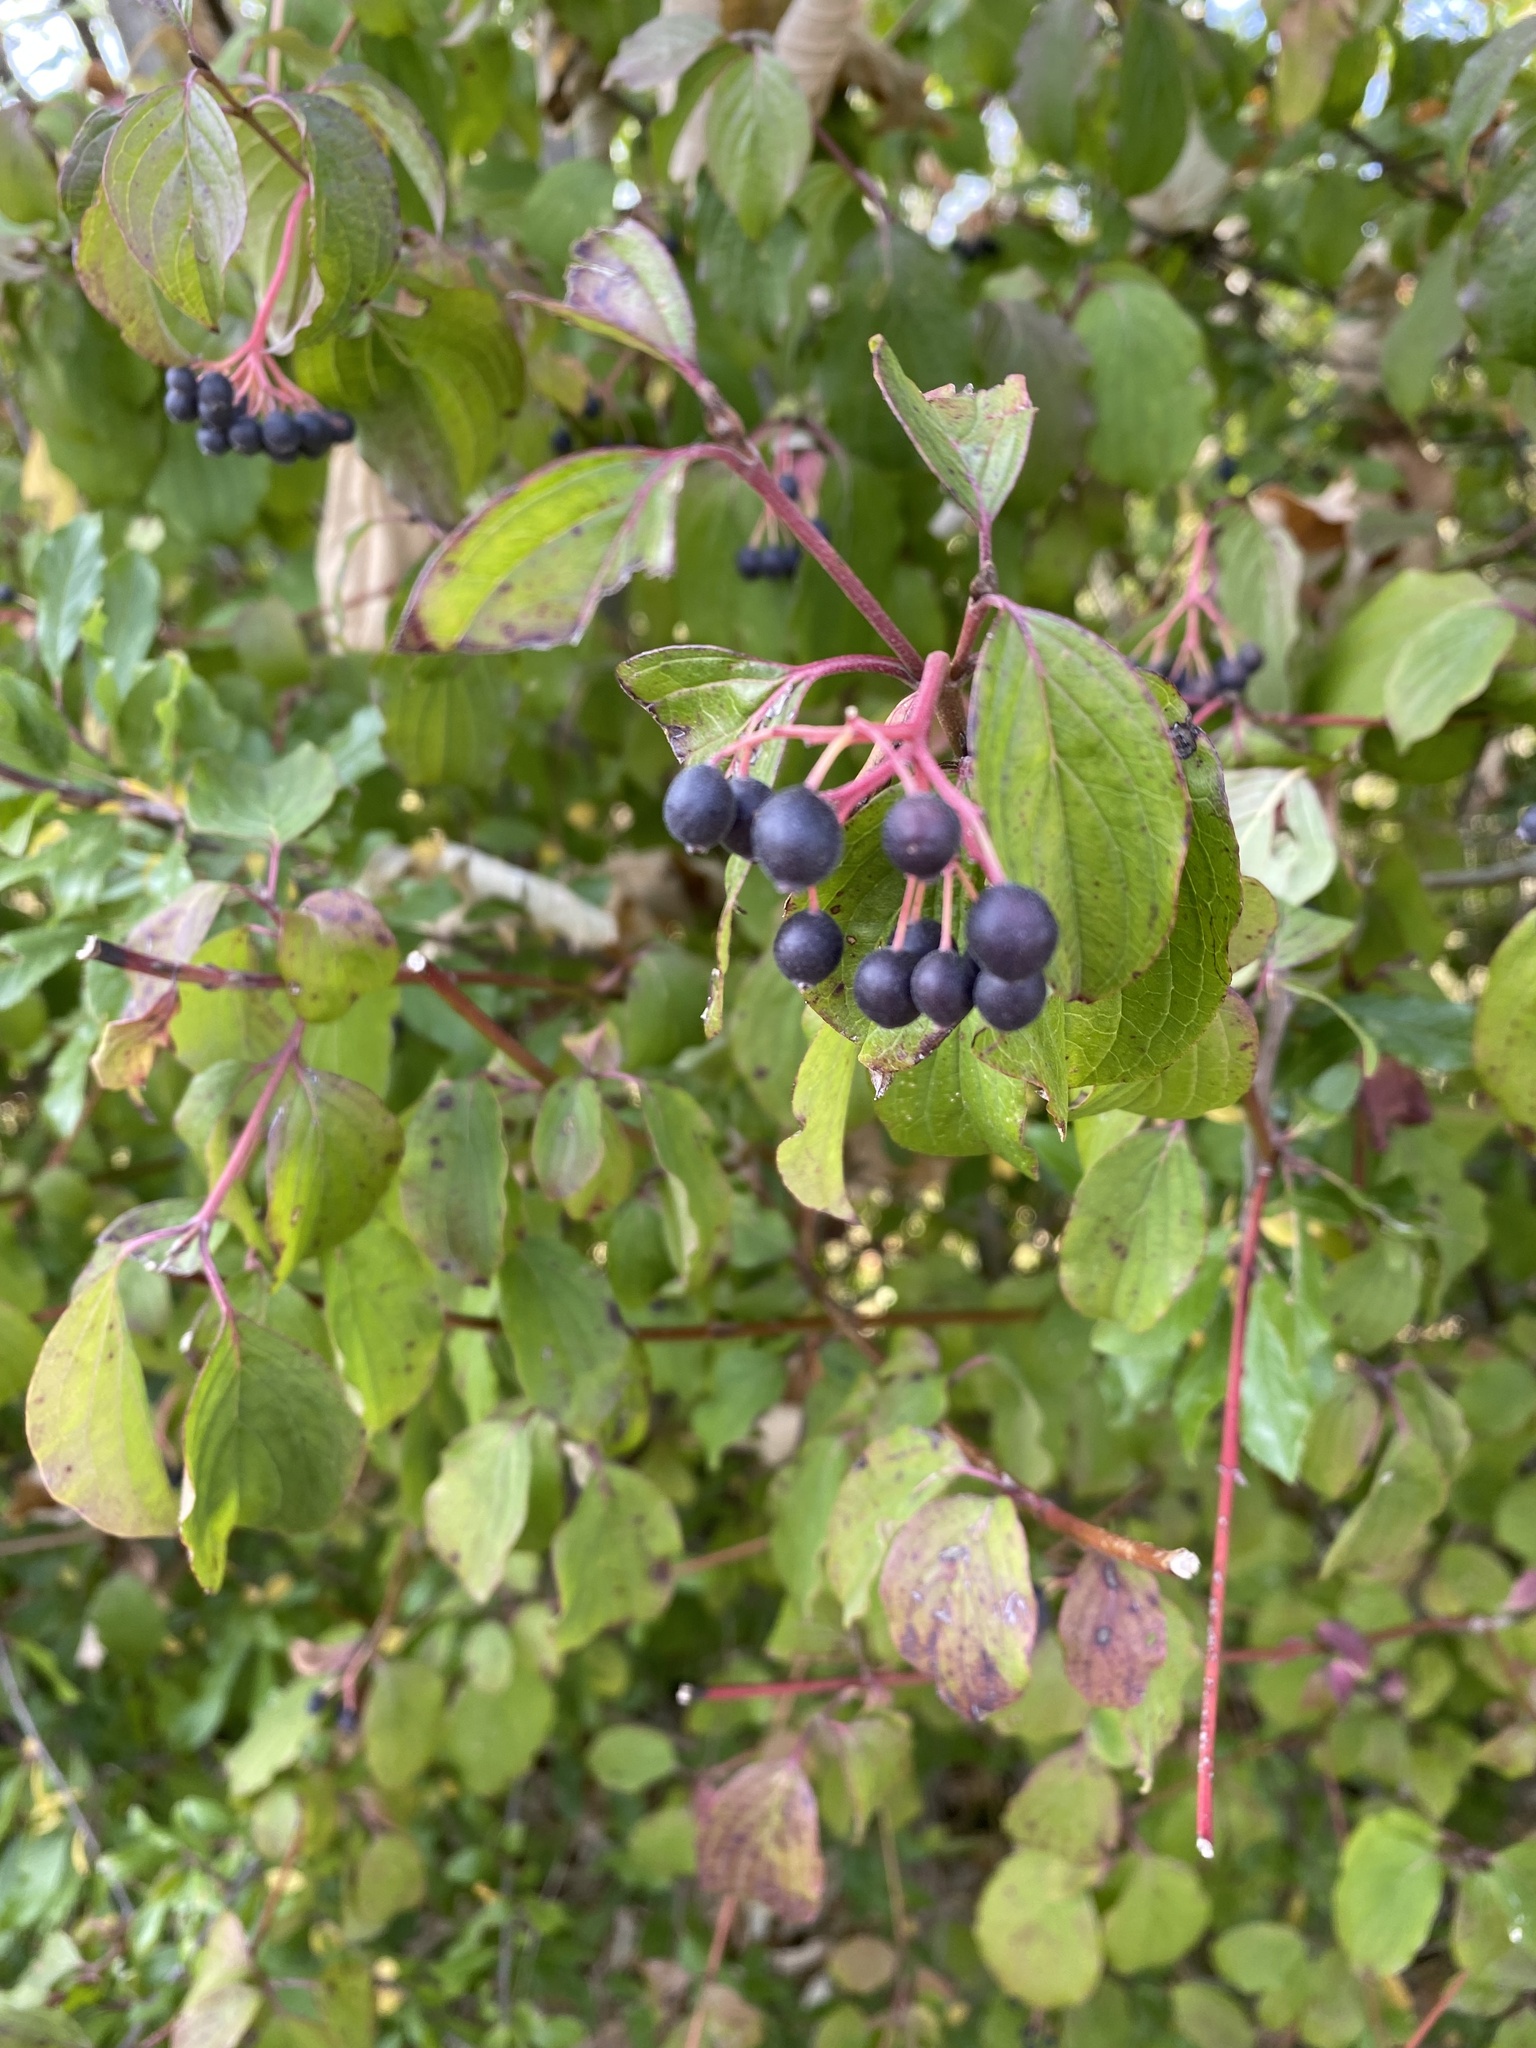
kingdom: Plantae
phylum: Tracheophyta
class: Magnoliopsida
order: Cornales
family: Cornaceae
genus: Cornus
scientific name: Cornus sanguinea
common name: Dogwood
